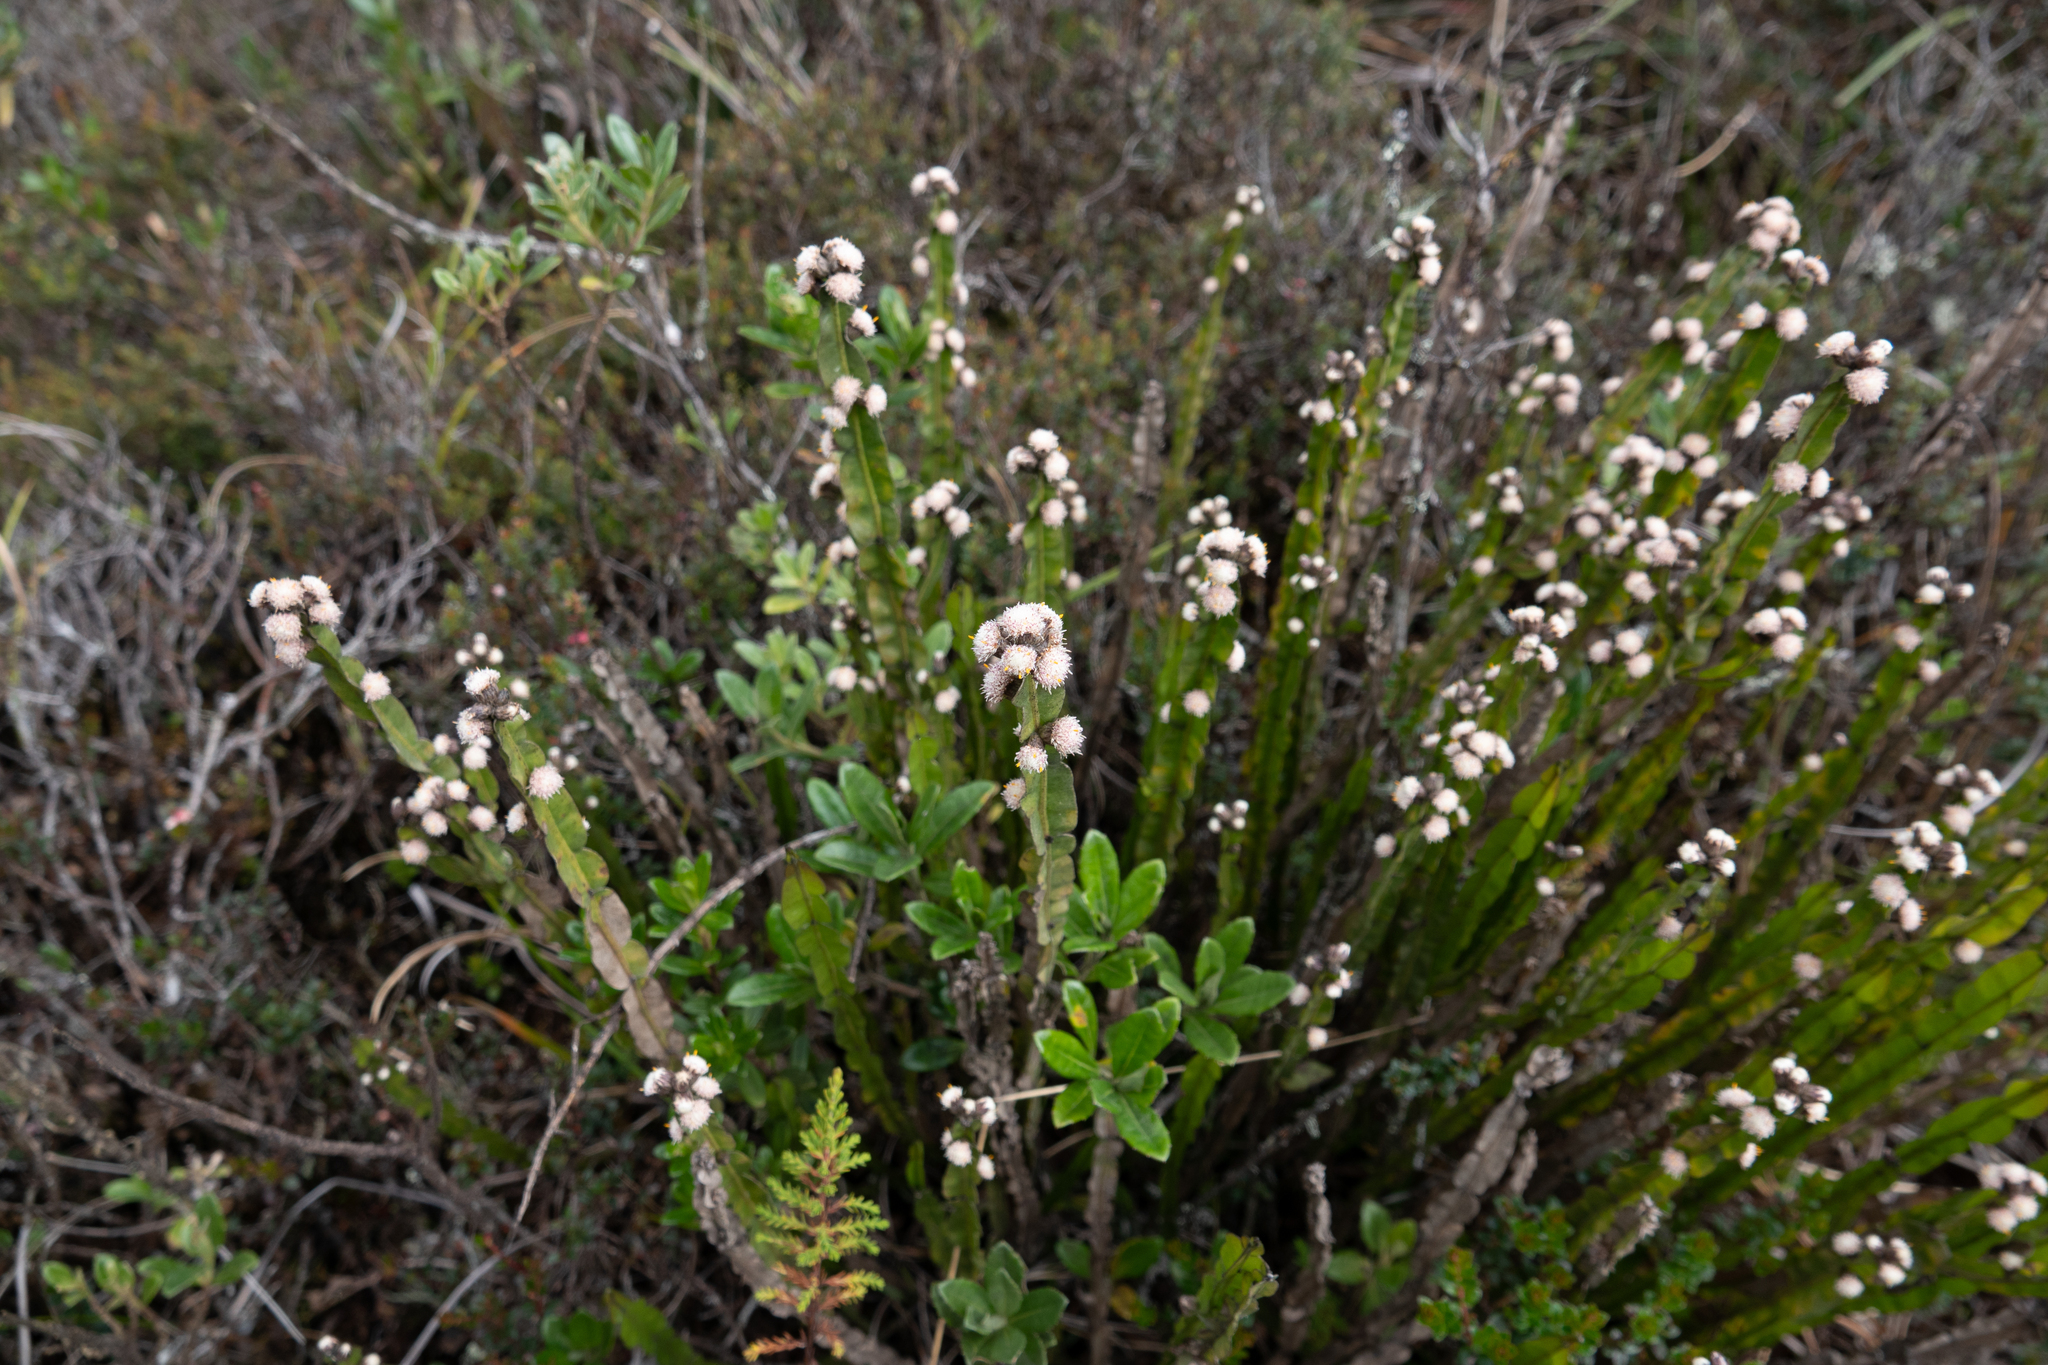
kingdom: Plantae
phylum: Tracheophyta
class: Magnoliopsida
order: Asterales
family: Asteraceae
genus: Baccharis
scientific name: Baccharis genistelloides
